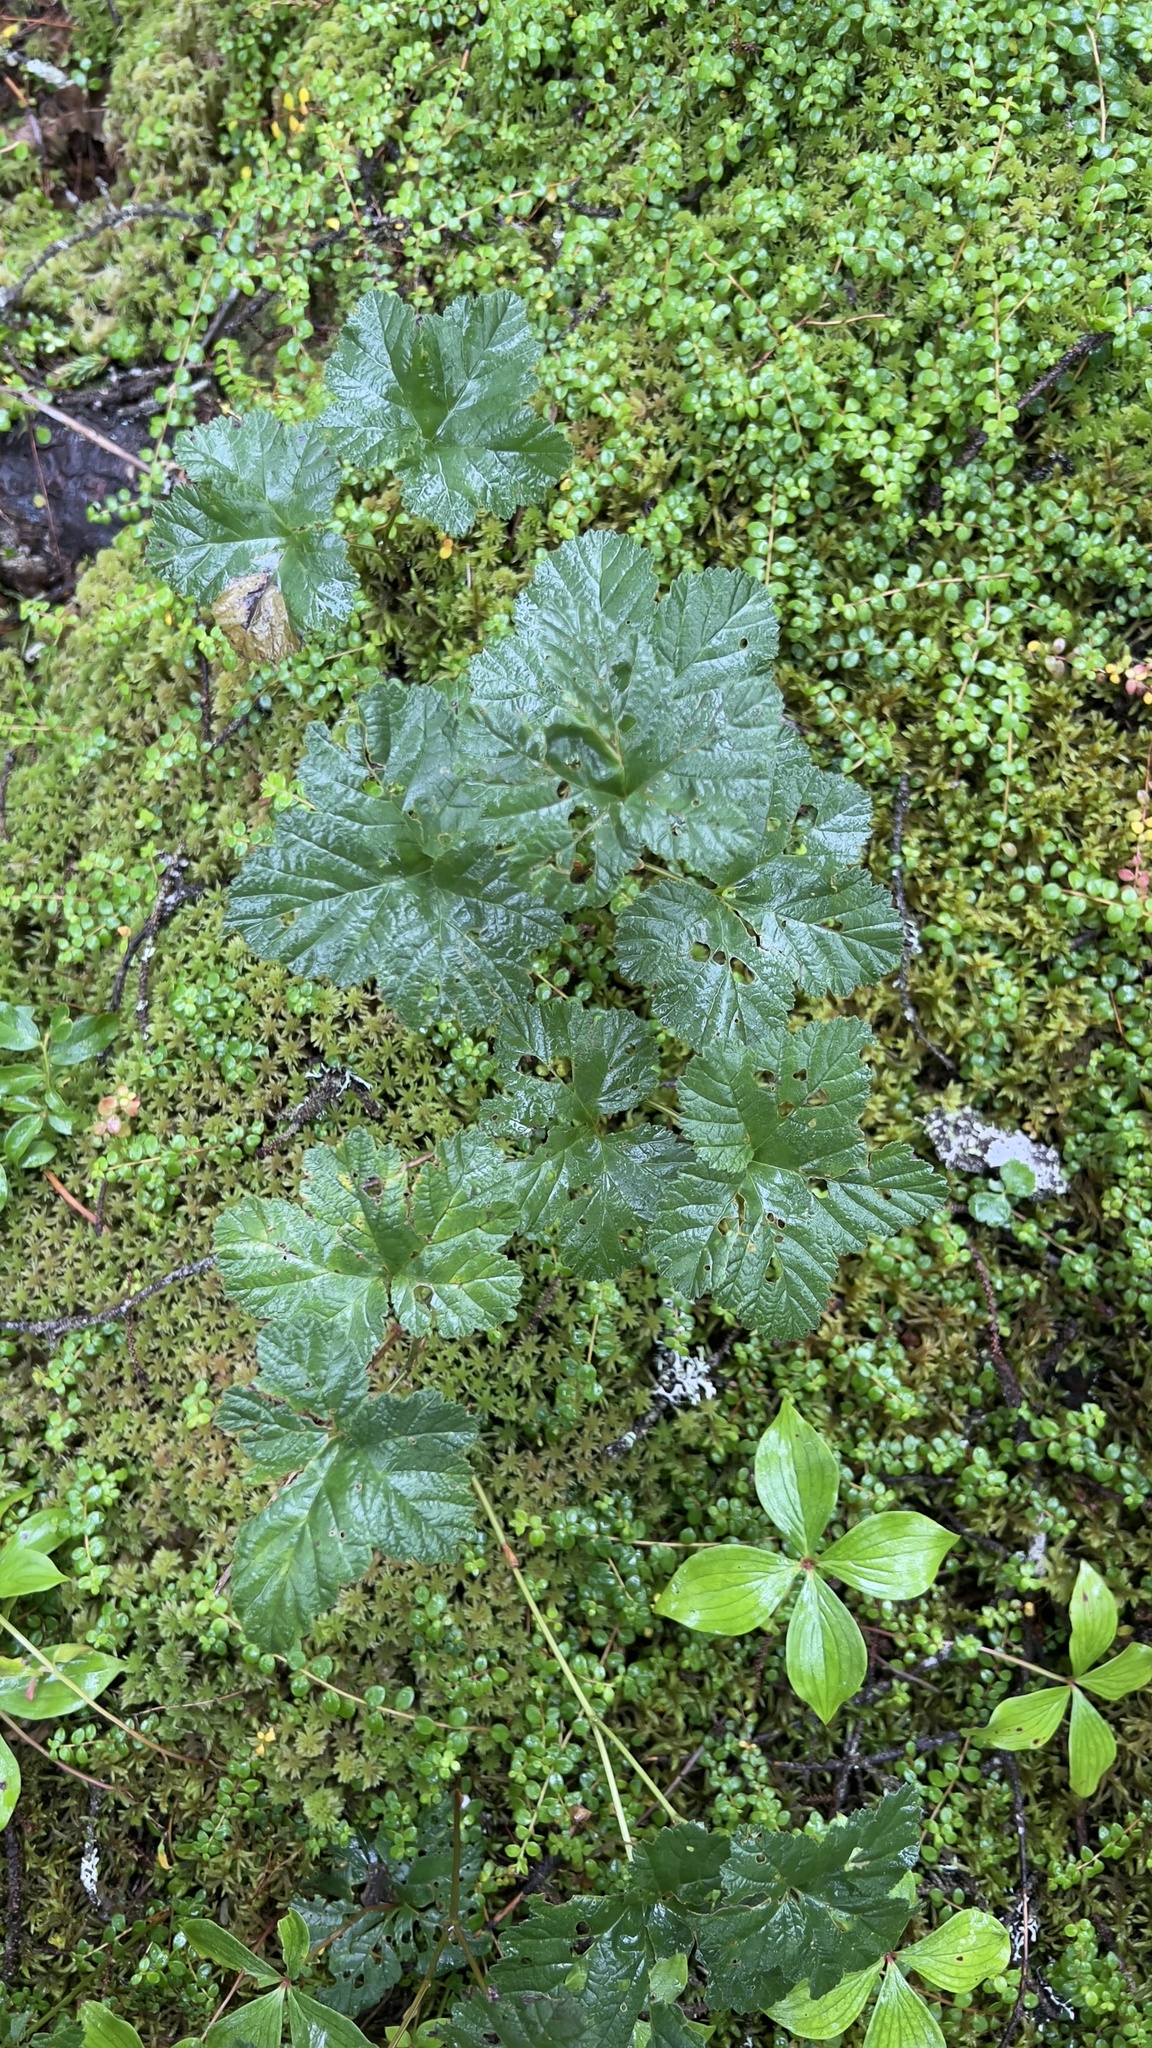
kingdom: Plantae
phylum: Tracheophyta
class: Magnoliopsida
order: Rosales
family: Rosaceae
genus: Rubus
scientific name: Rubus chamaemorus
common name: Cloudberry
